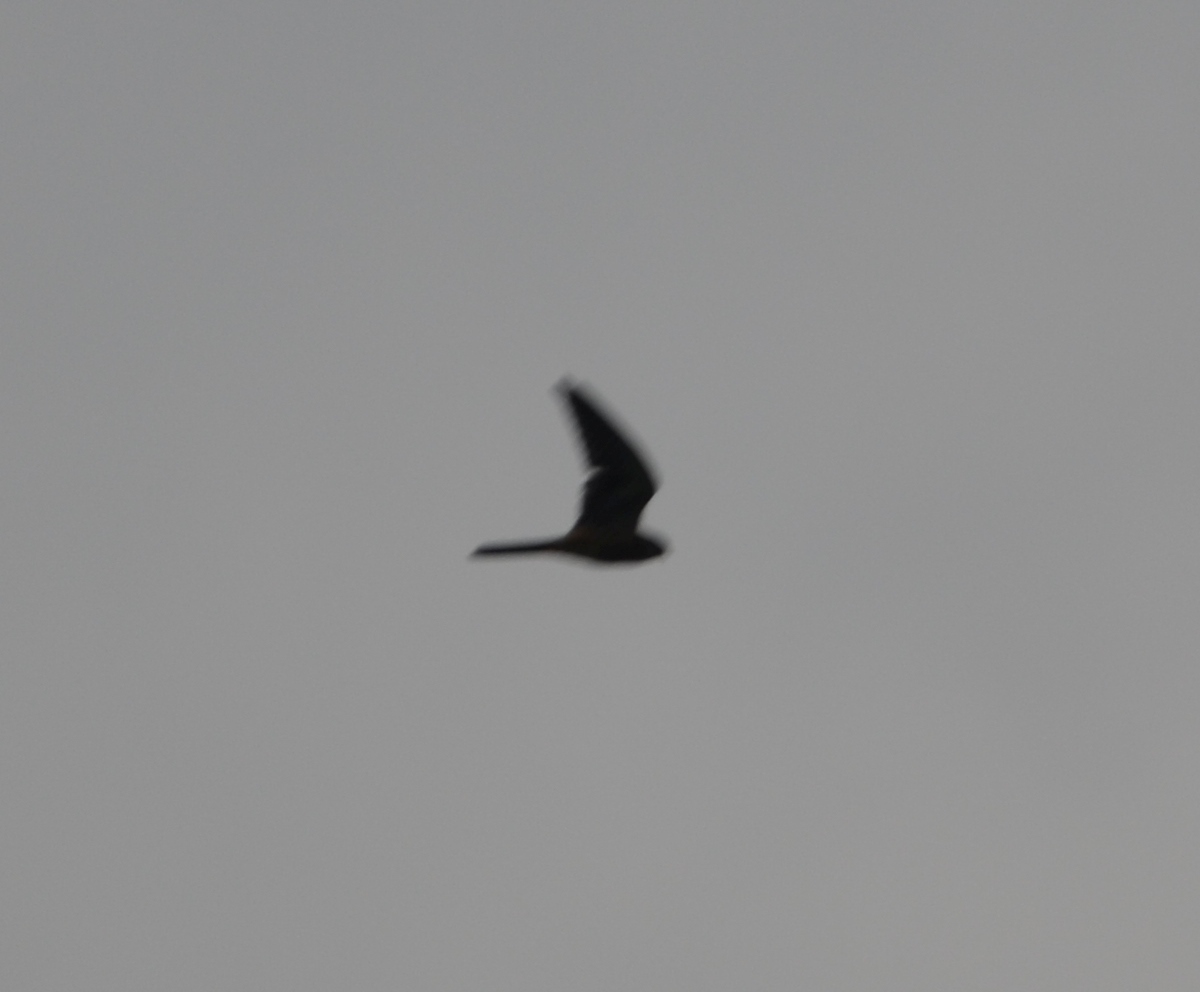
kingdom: Animalia
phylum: Chordata
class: Aves
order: Falconiformes
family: Falconidae
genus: Falco
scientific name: Falco tinnunculus
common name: Common kestrel
